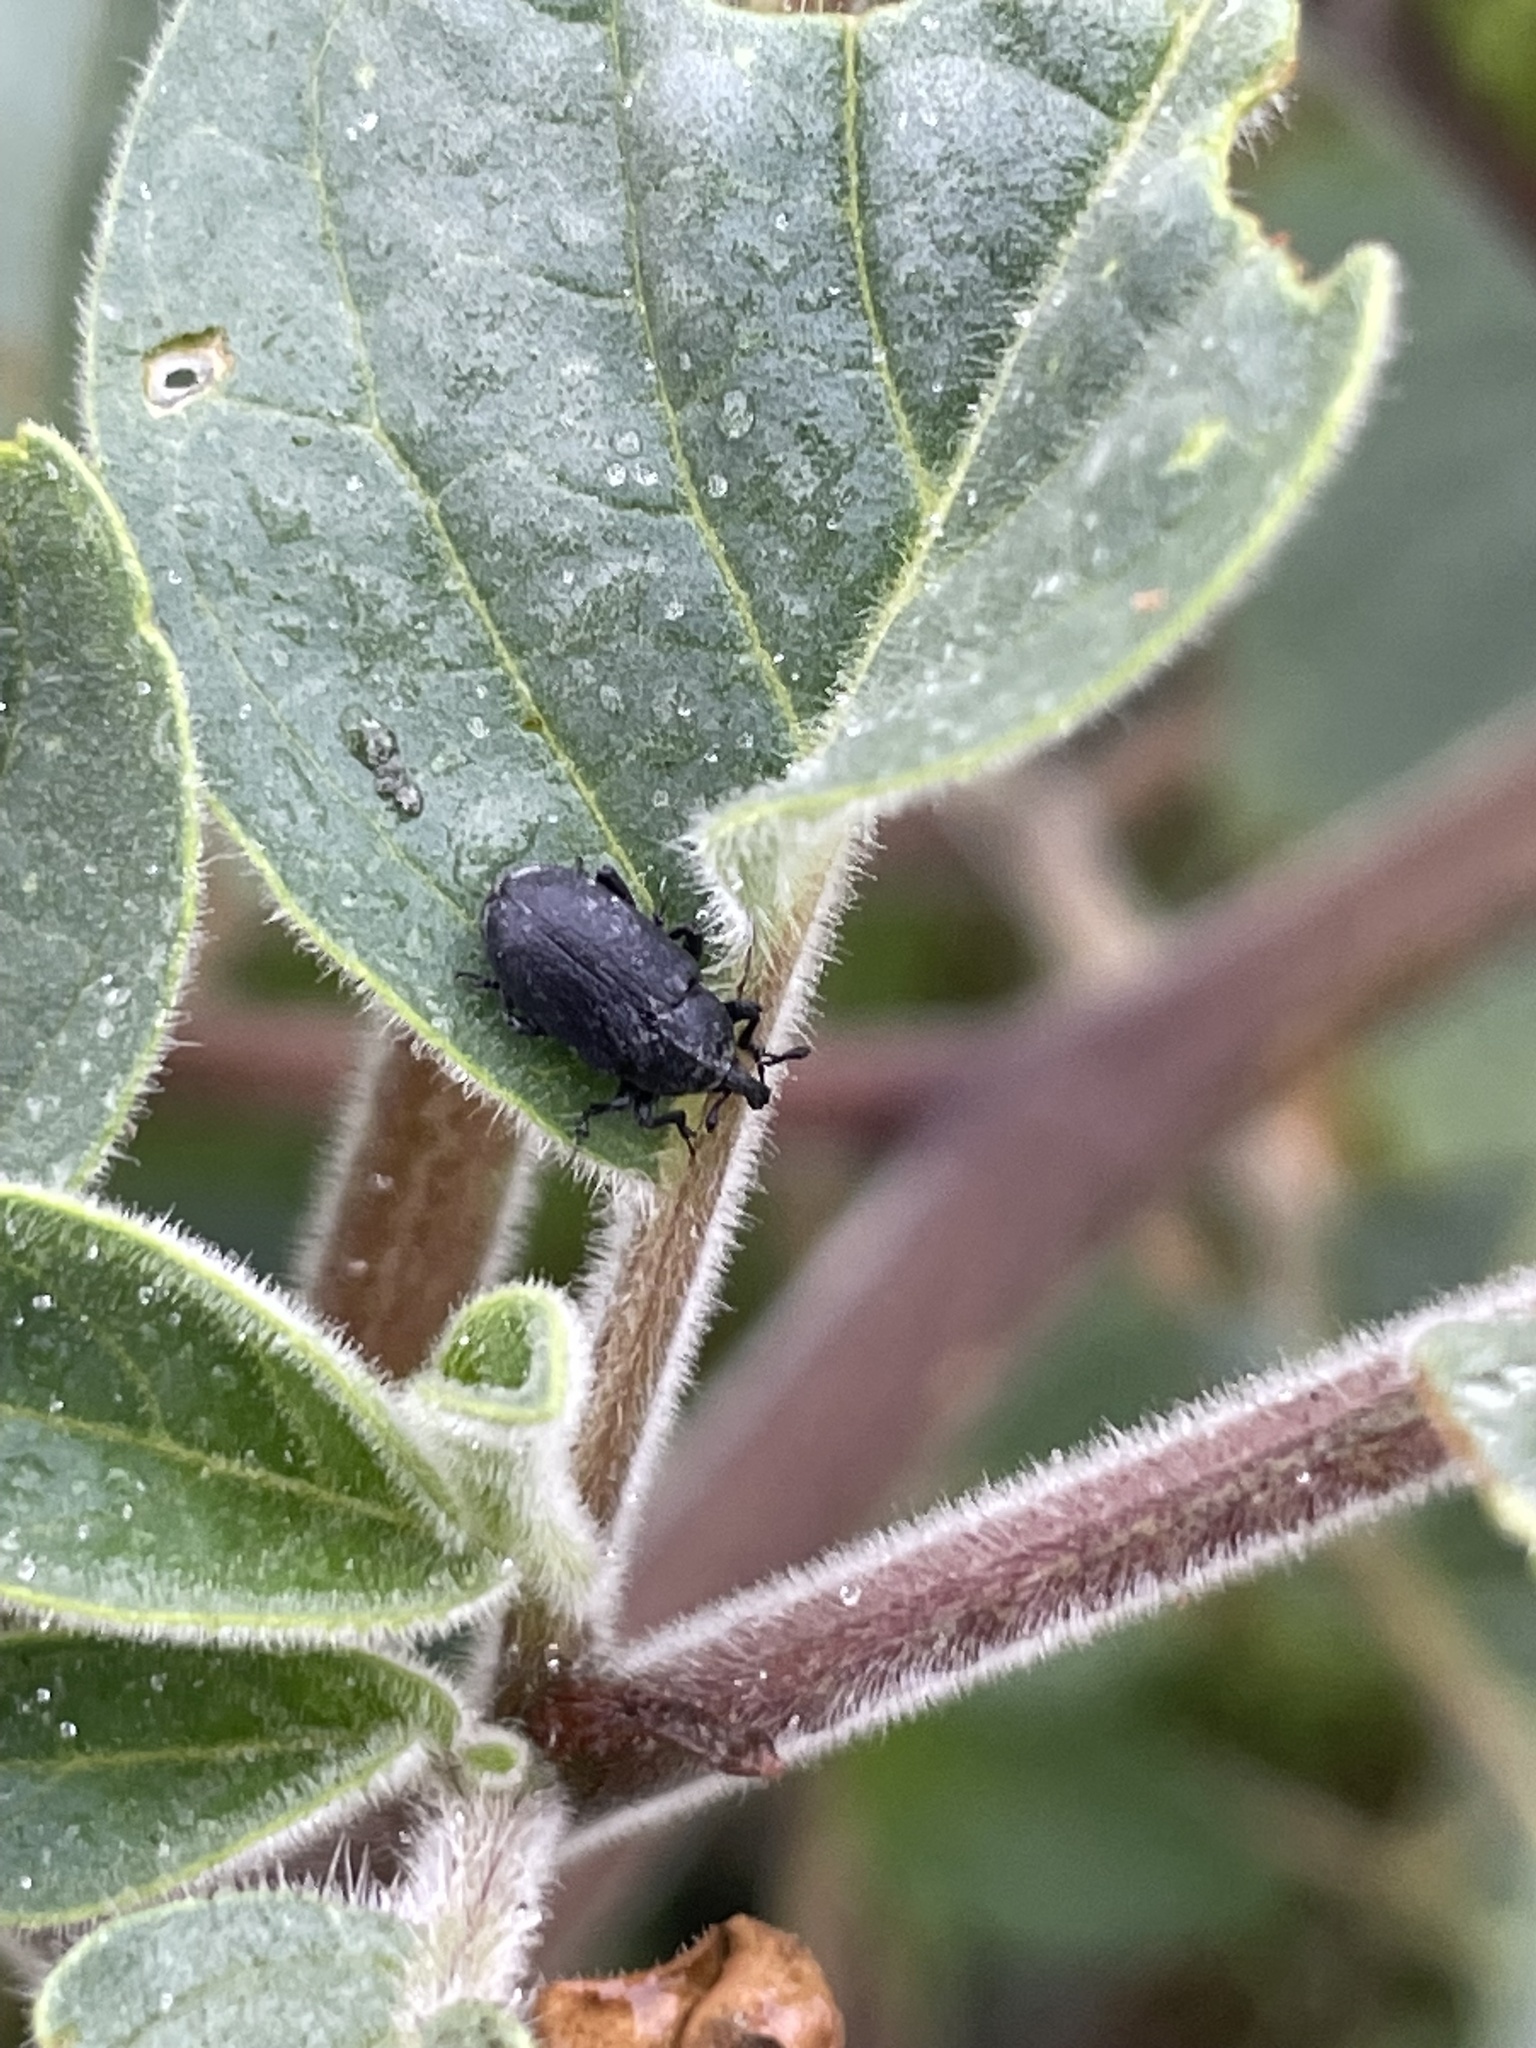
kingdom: Animalia
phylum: Arthropoda
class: Insecta
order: Coleoptera
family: Curculionidae
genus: Trichobaris
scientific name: Trichobaris compacta
